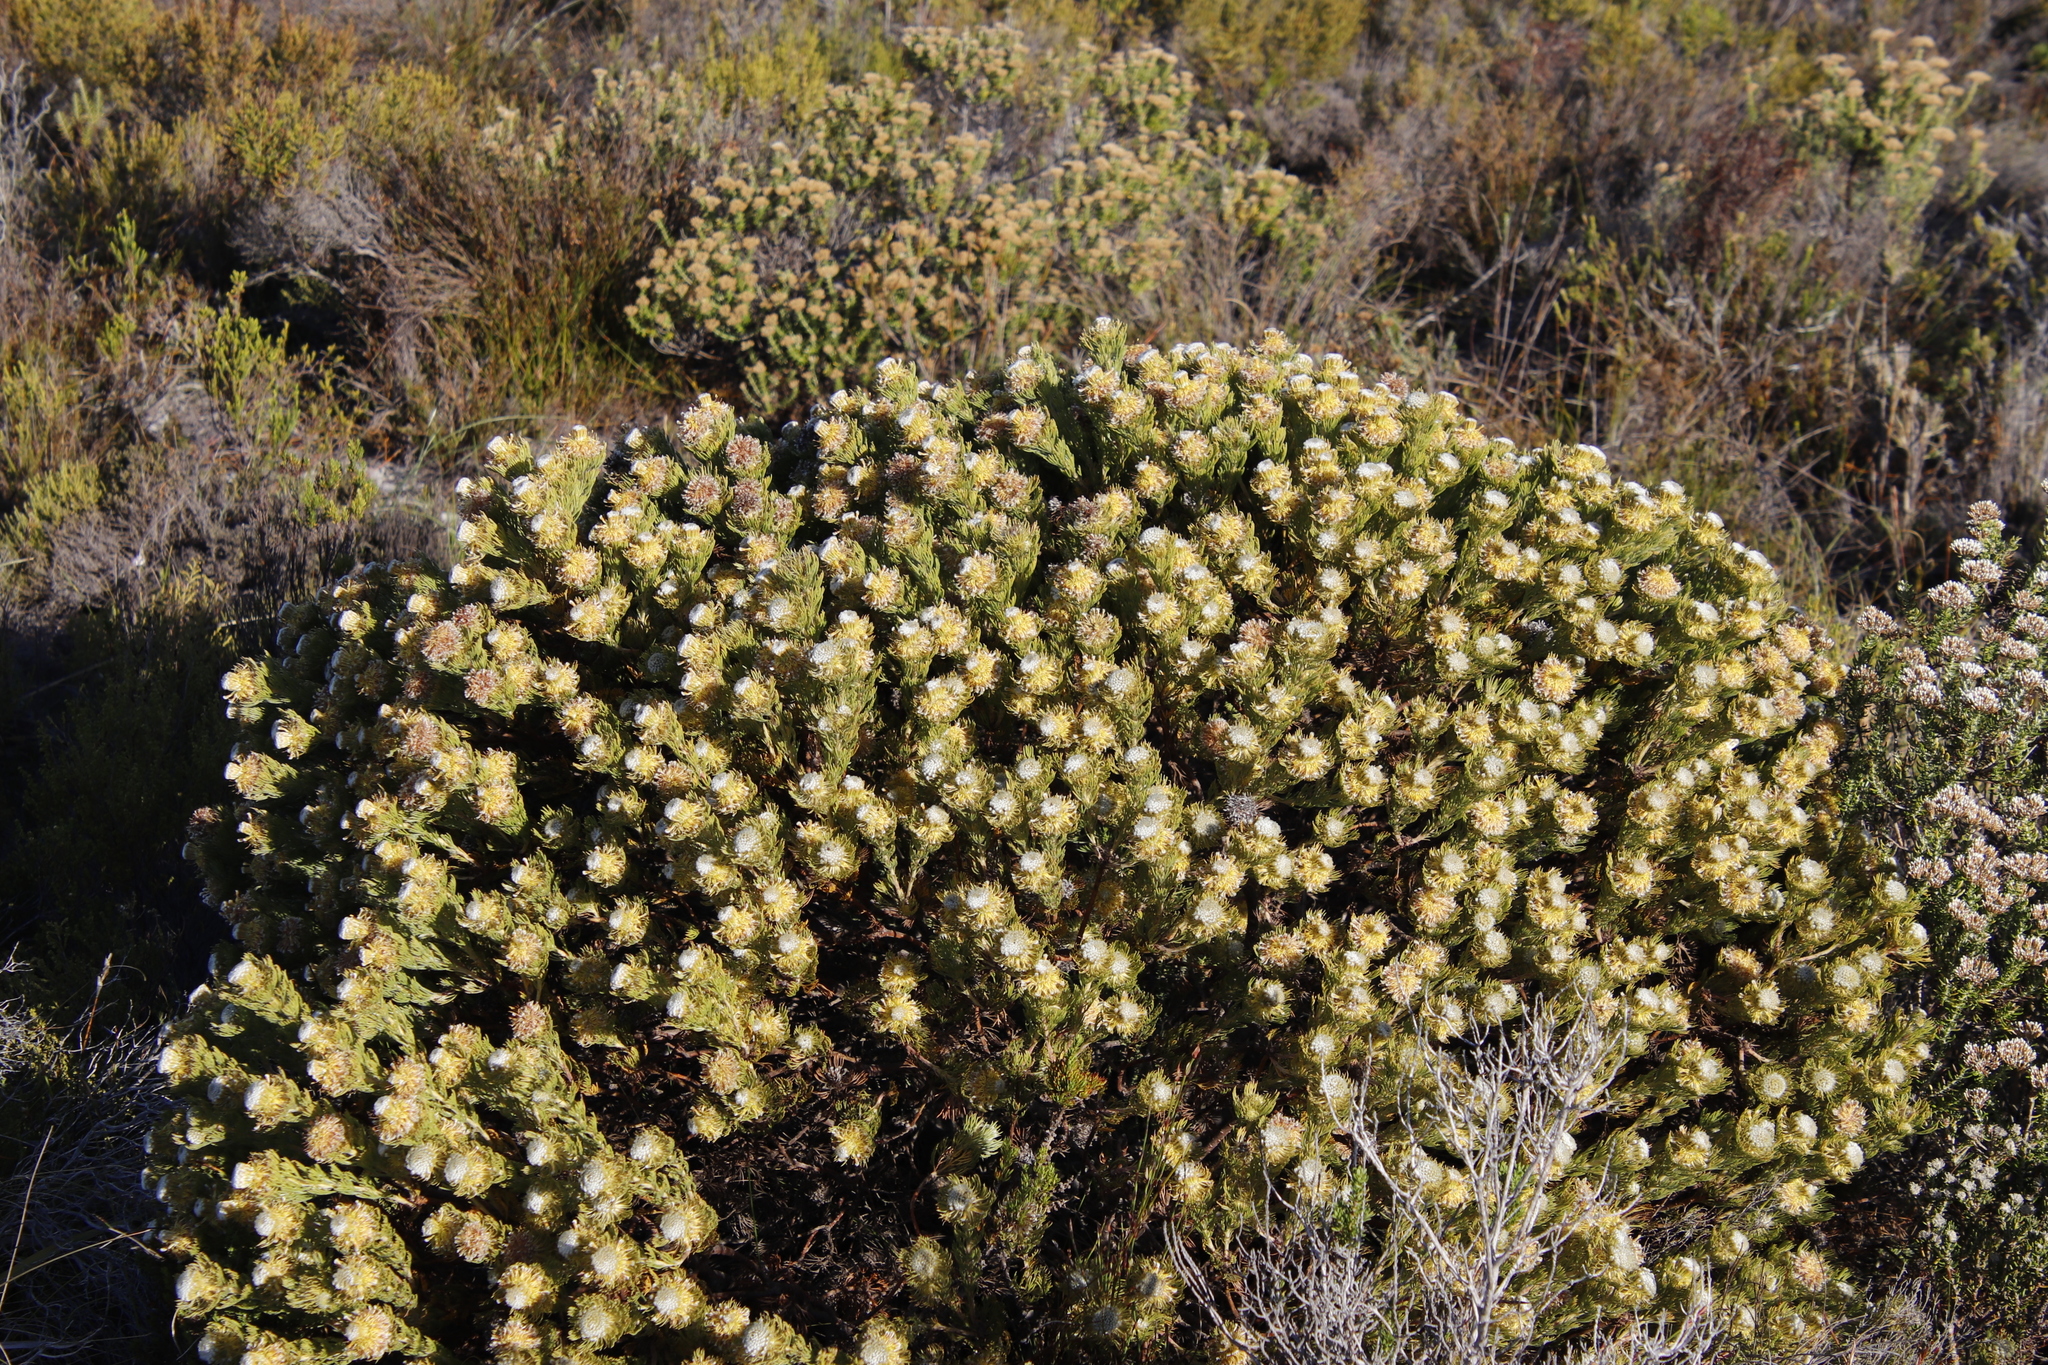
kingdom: Plantae
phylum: Tracheophyta
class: Magnoliopsida
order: Proteales
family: Proteaceae
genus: Serruria
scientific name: Serruria villosa
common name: Golden spiderhead
